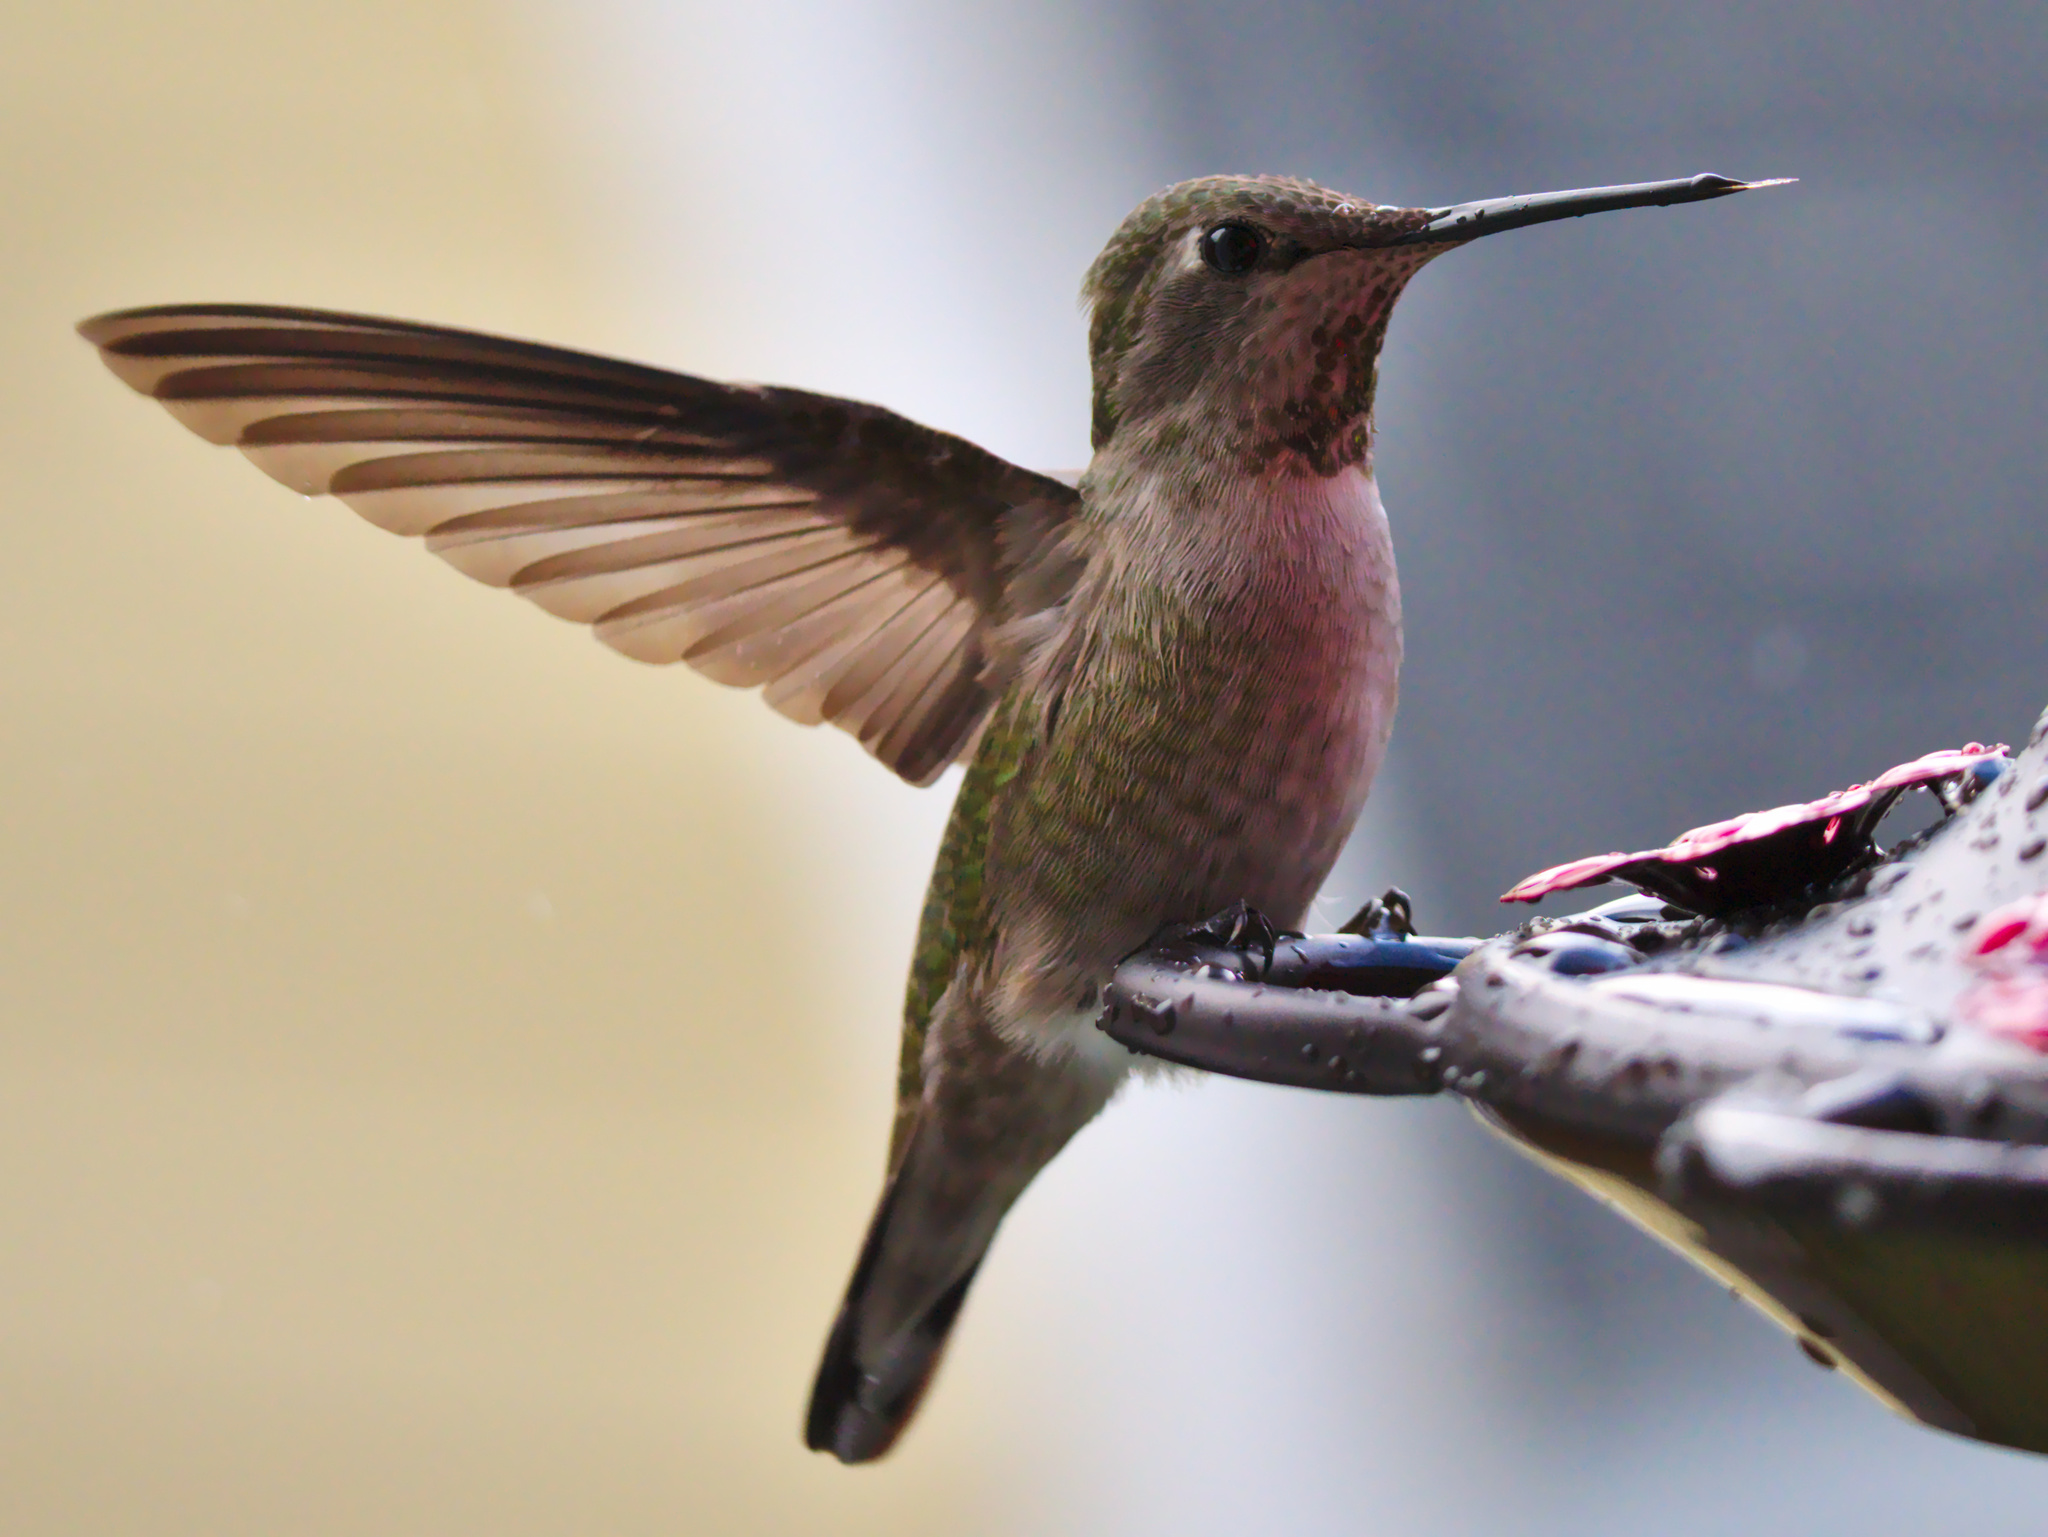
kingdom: Animalia
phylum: Chordata
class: Aves
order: Apodiformes
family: Trochilidae
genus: Calypte
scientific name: Calypte anna
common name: Anna's hummingbird
